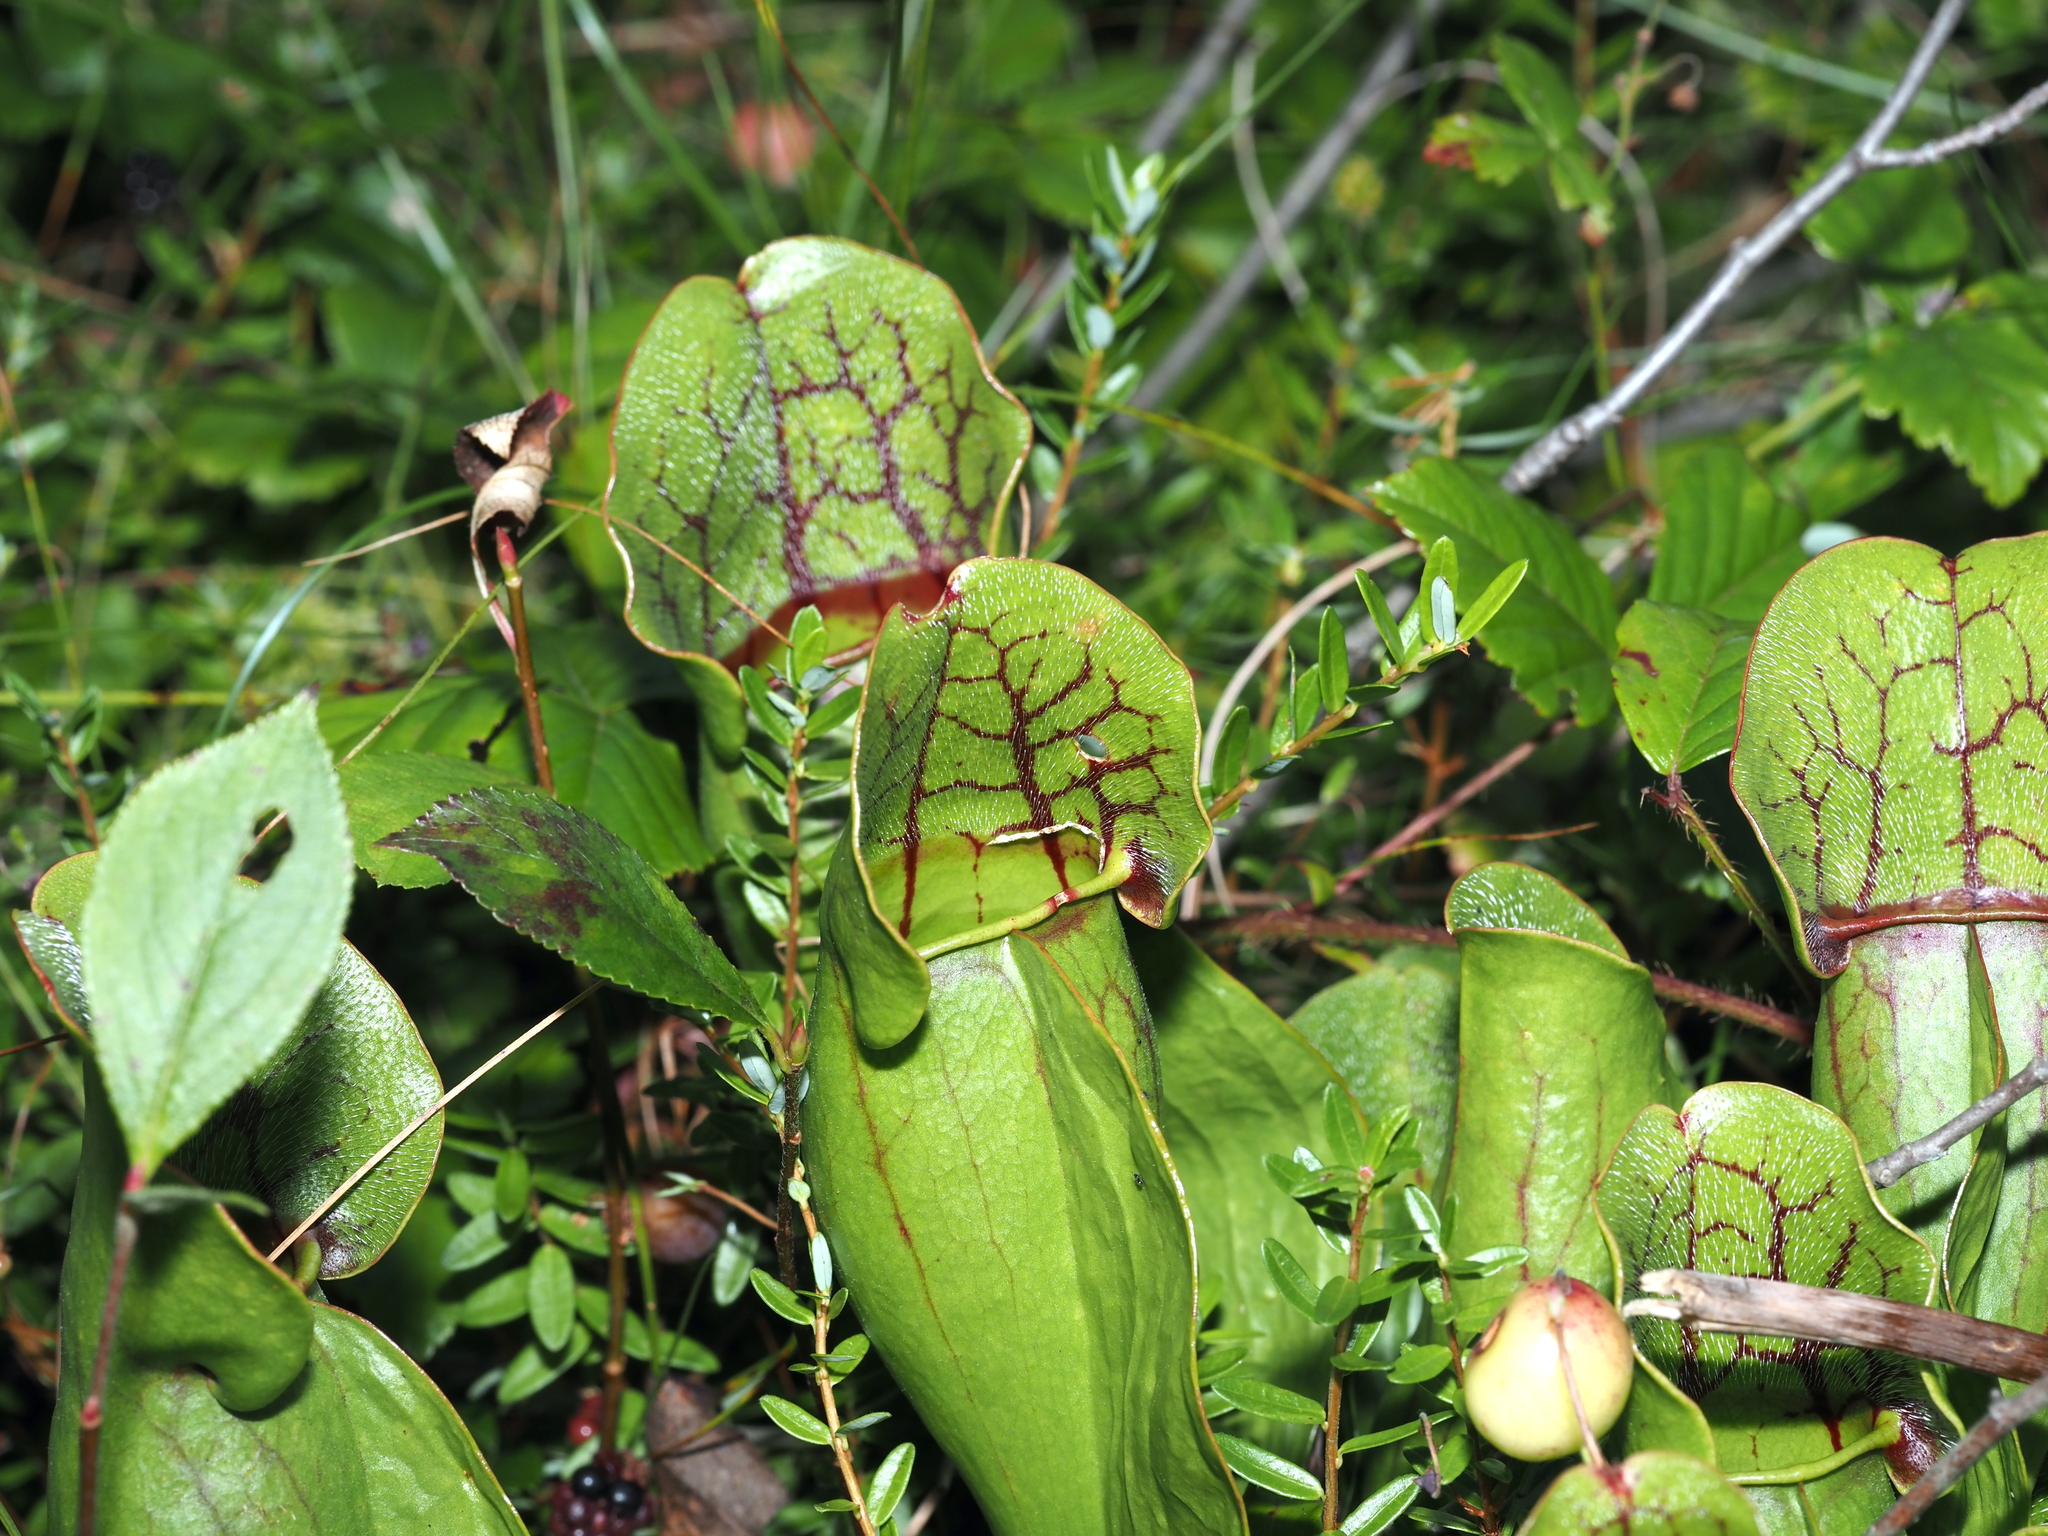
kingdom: Plantae
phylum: Tracheophyta
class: Magnoliopsida
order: Ericales
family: Sarraceniaceae
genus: Sarracenia
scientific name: Sarracenia purpurea
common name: Pitcherplant
